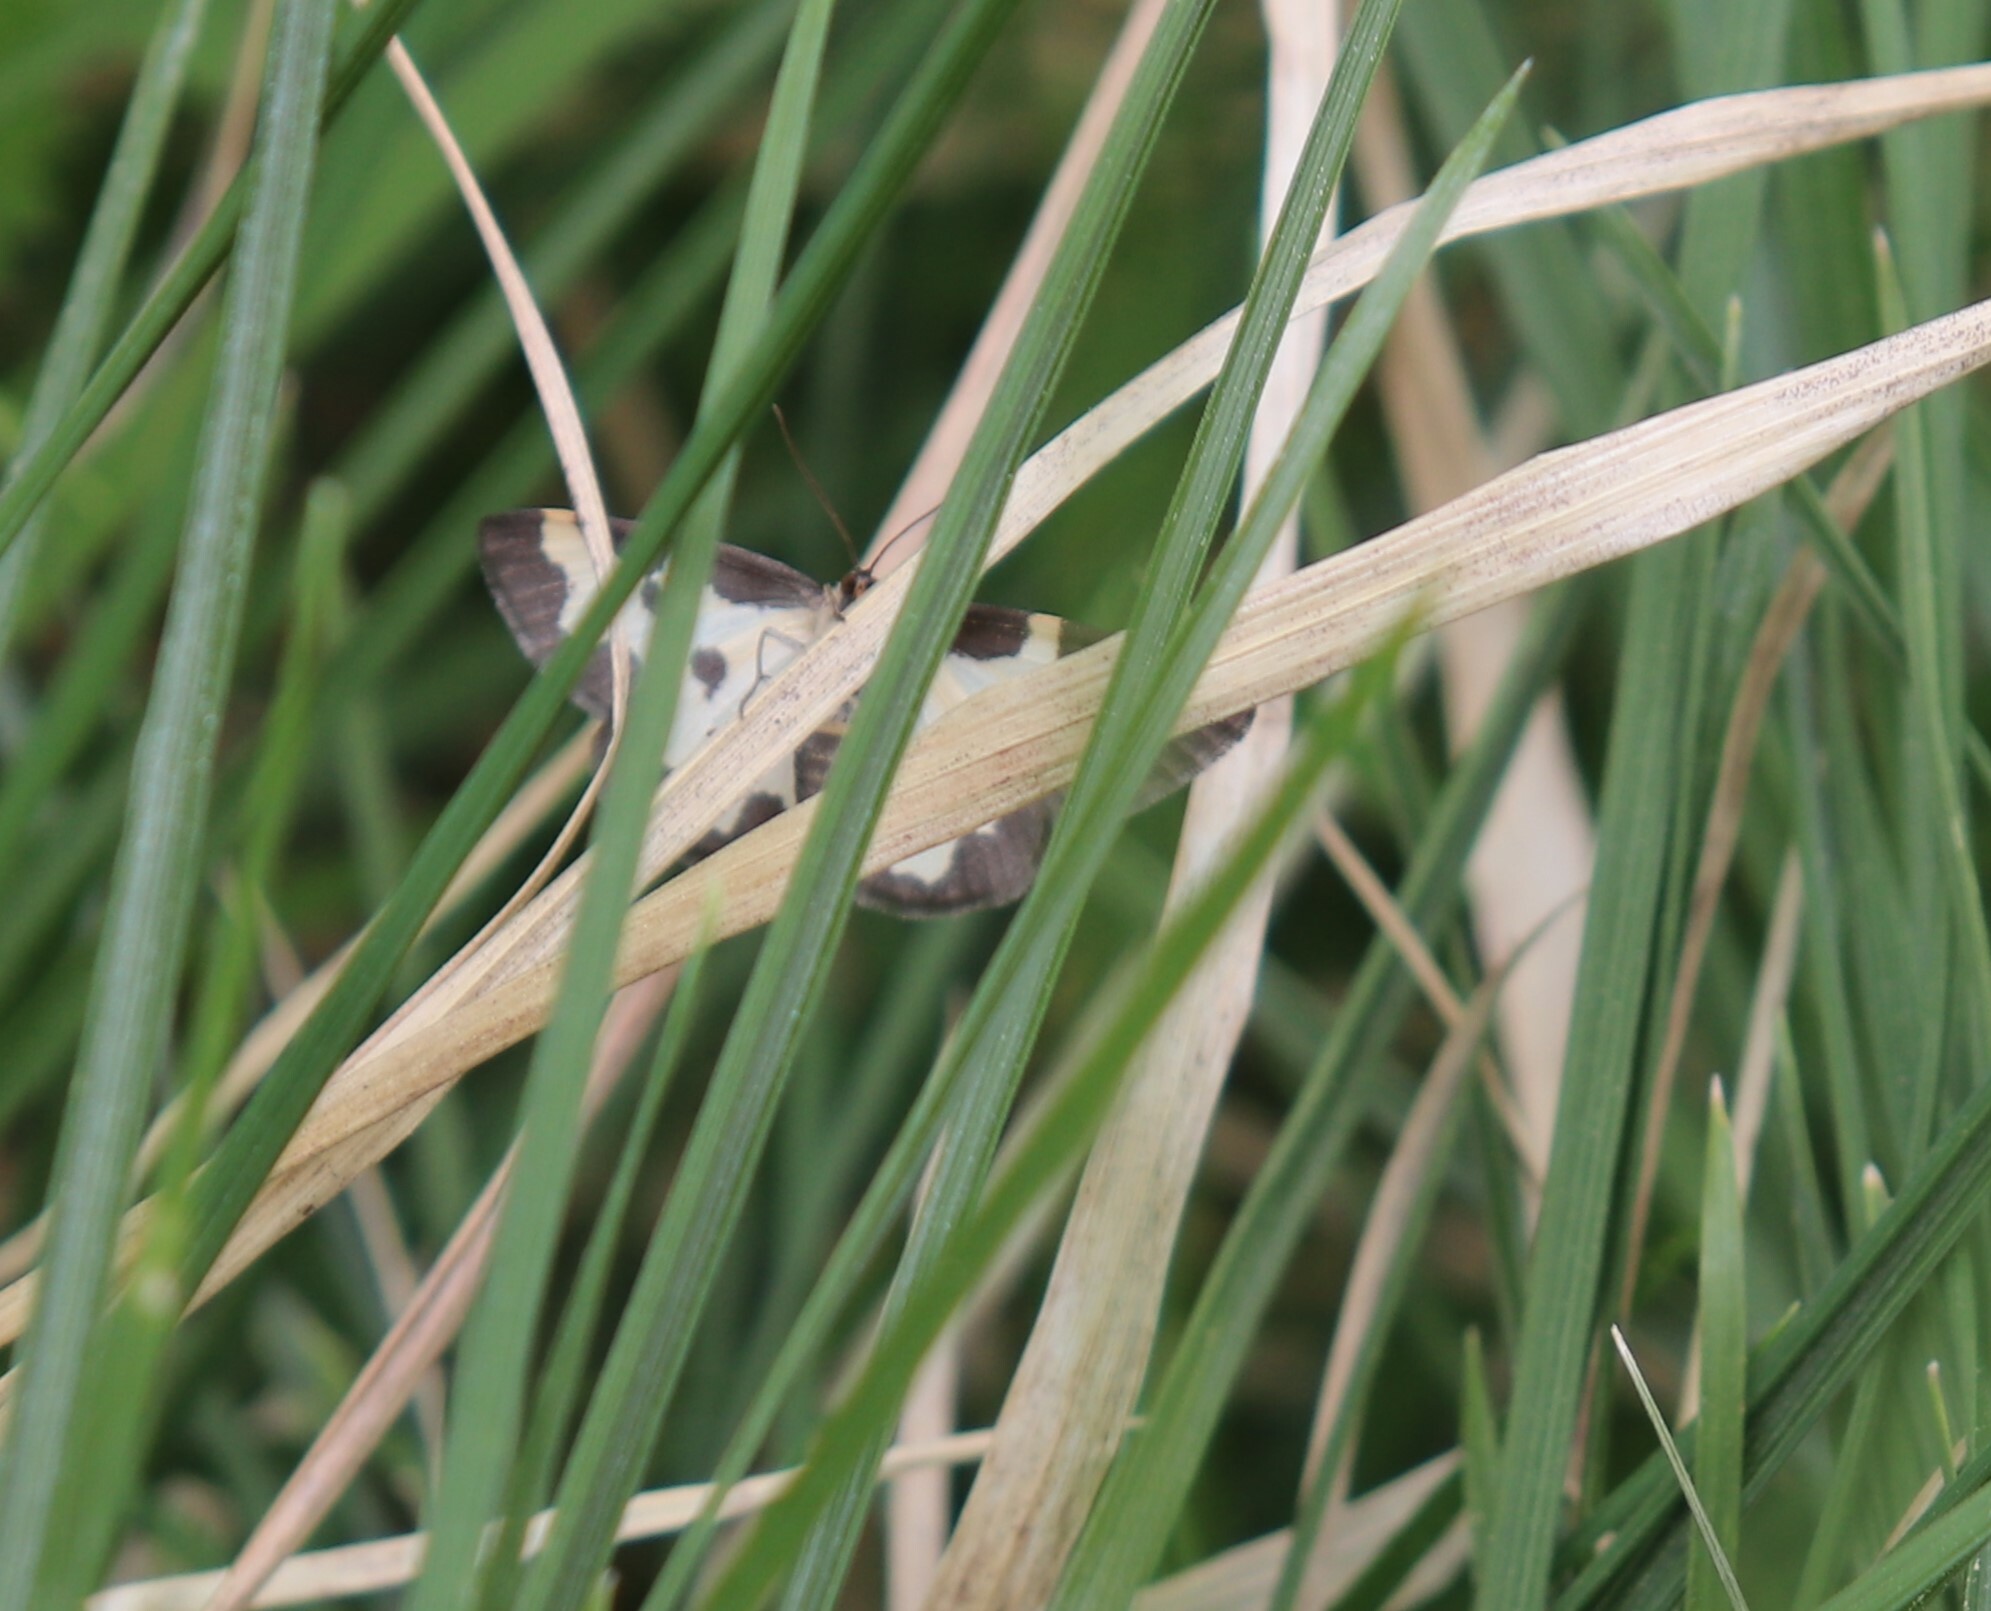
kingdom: Animalia
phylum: Arthropoda
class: Insecta
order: Lepidoptera
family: Geometridae
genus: Lomaspilis
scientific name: Lomaspilis marginata
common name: Clouded border
